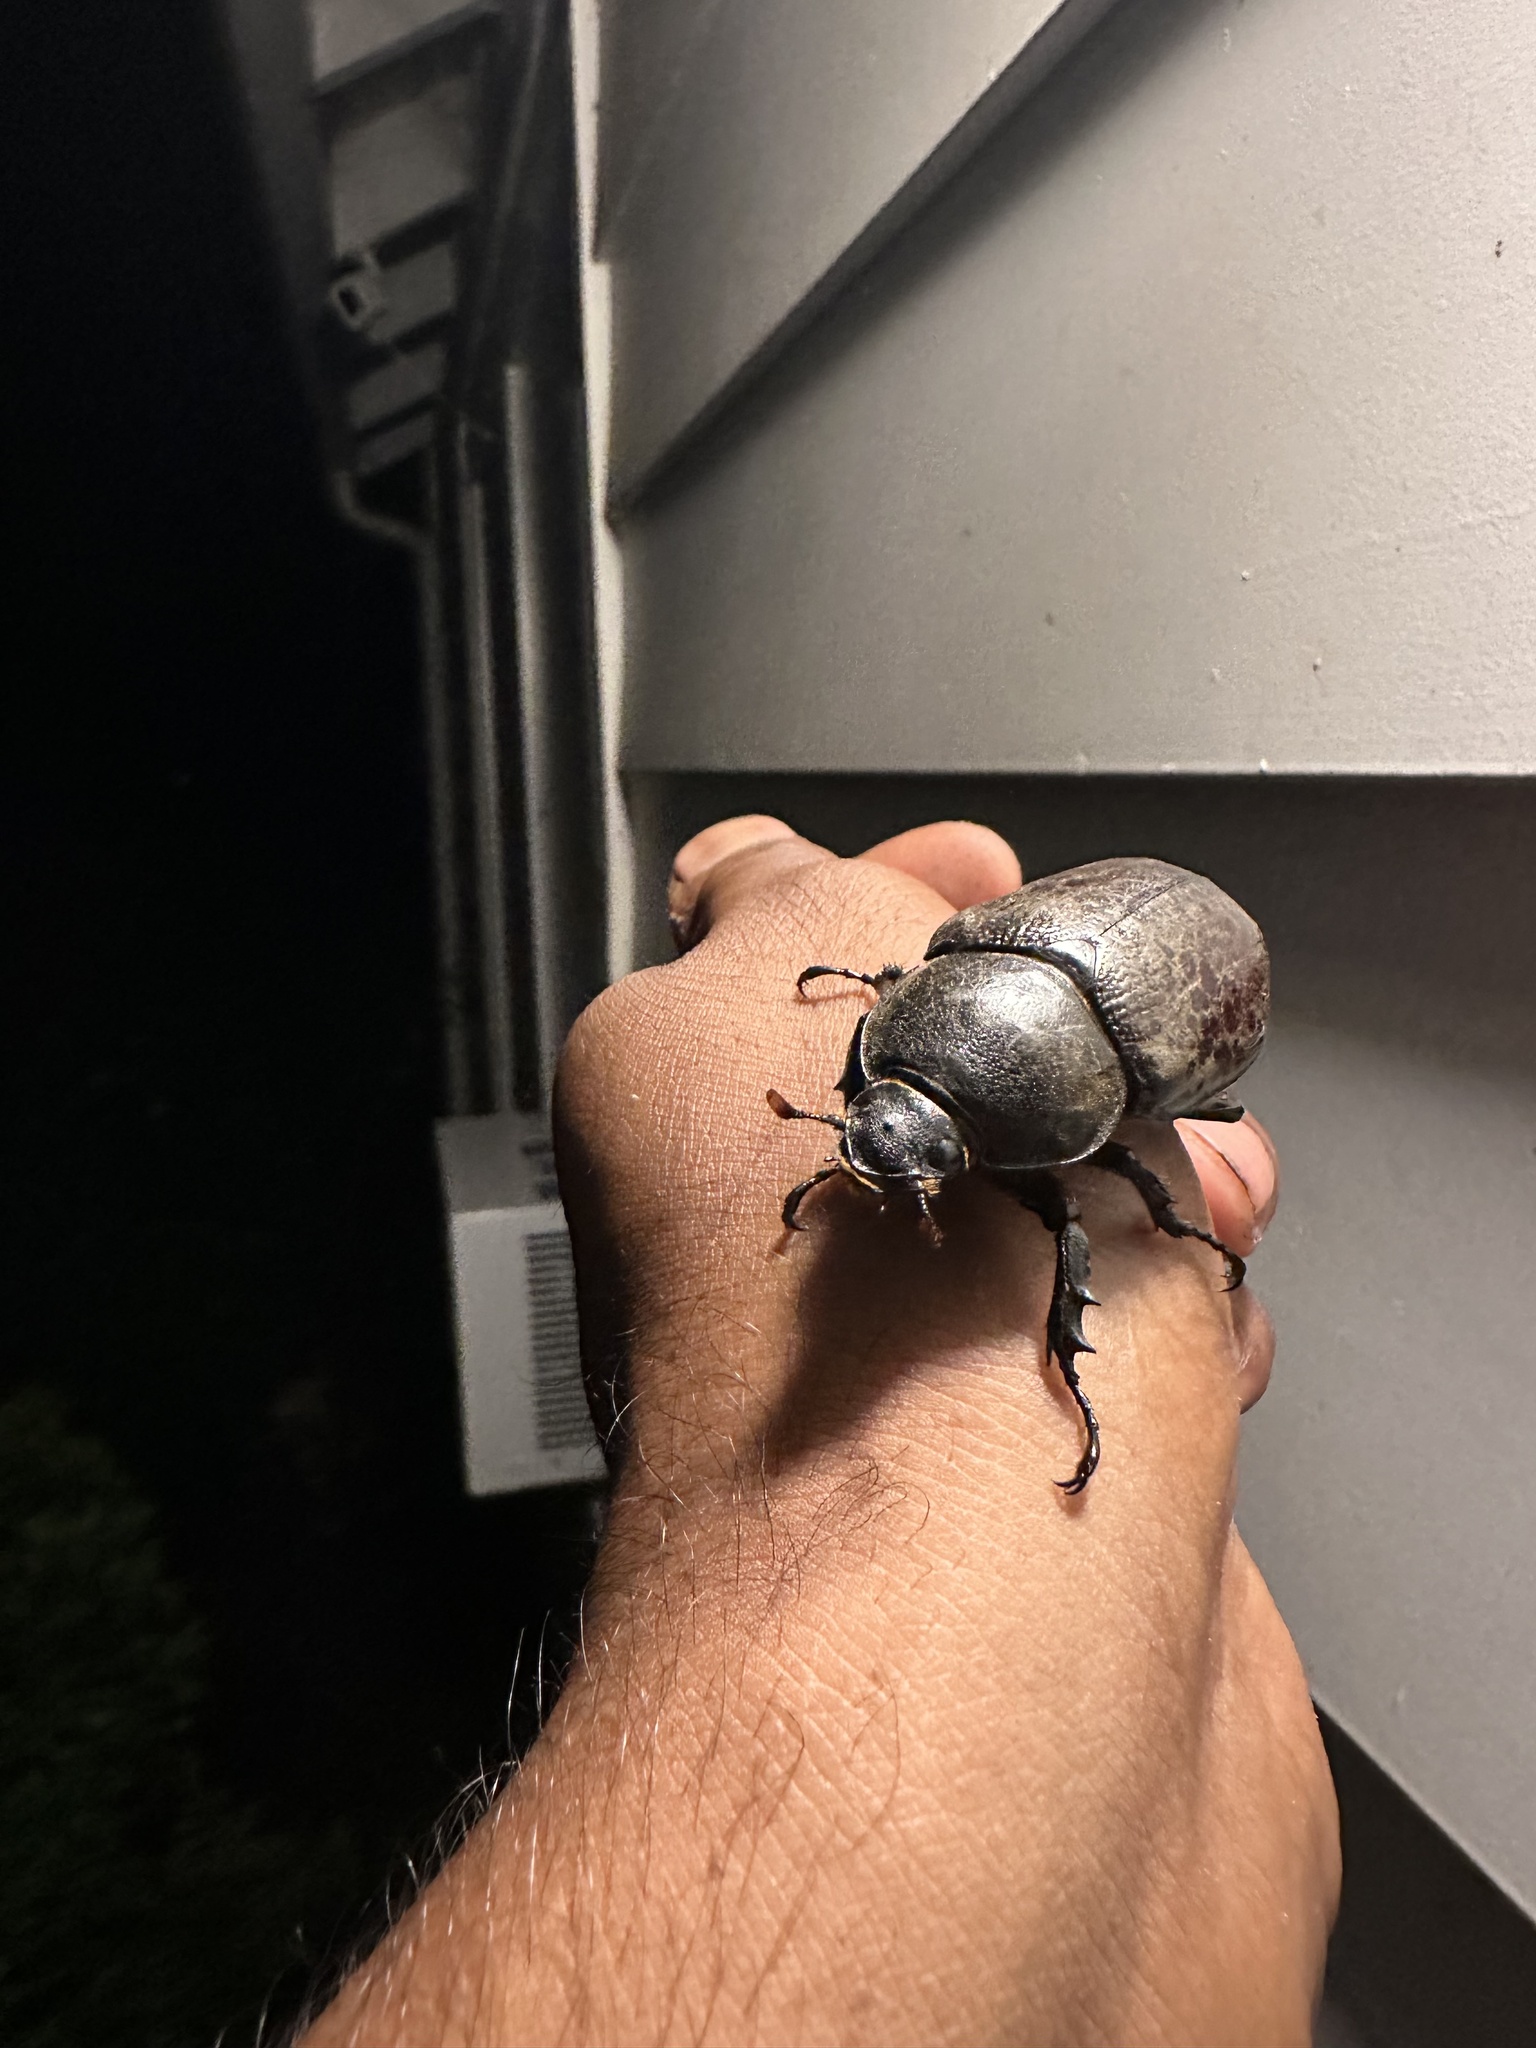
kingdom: Animalia
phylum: Arthropoda
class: Insecta
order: Coleoptera
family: Scarabaeidae
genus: Dynastes
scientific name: Dynastes tityus
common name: Eastern hercules beetle
